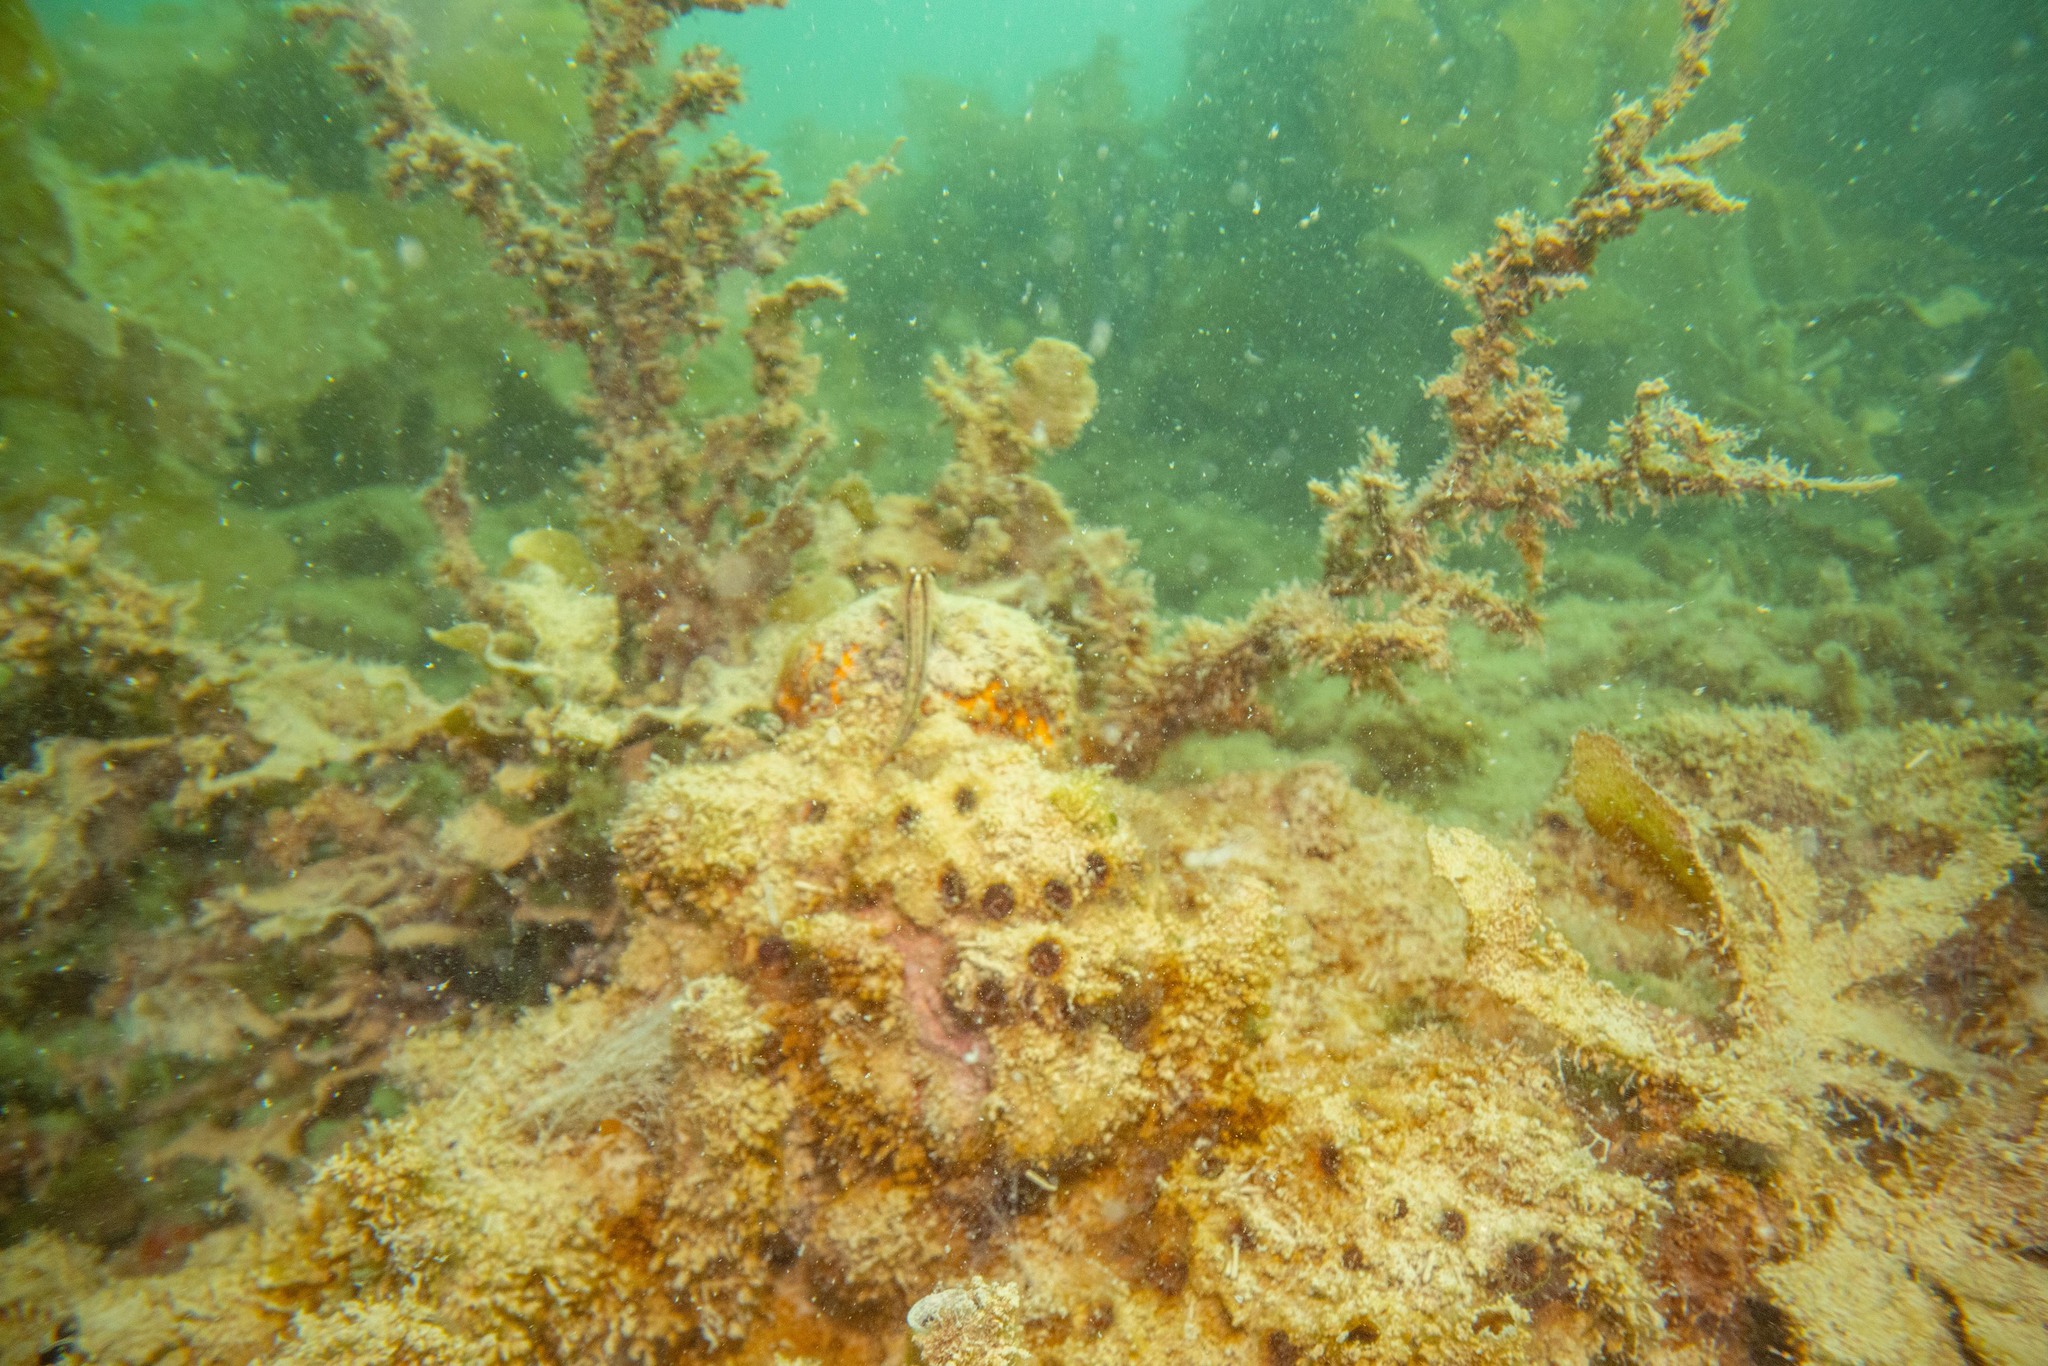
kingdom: Animalia
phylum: Cnidaria
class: Anthozoa
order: Scleractinia
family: Rhizangiidae
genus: Culicia
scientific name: Culicia rubeola
